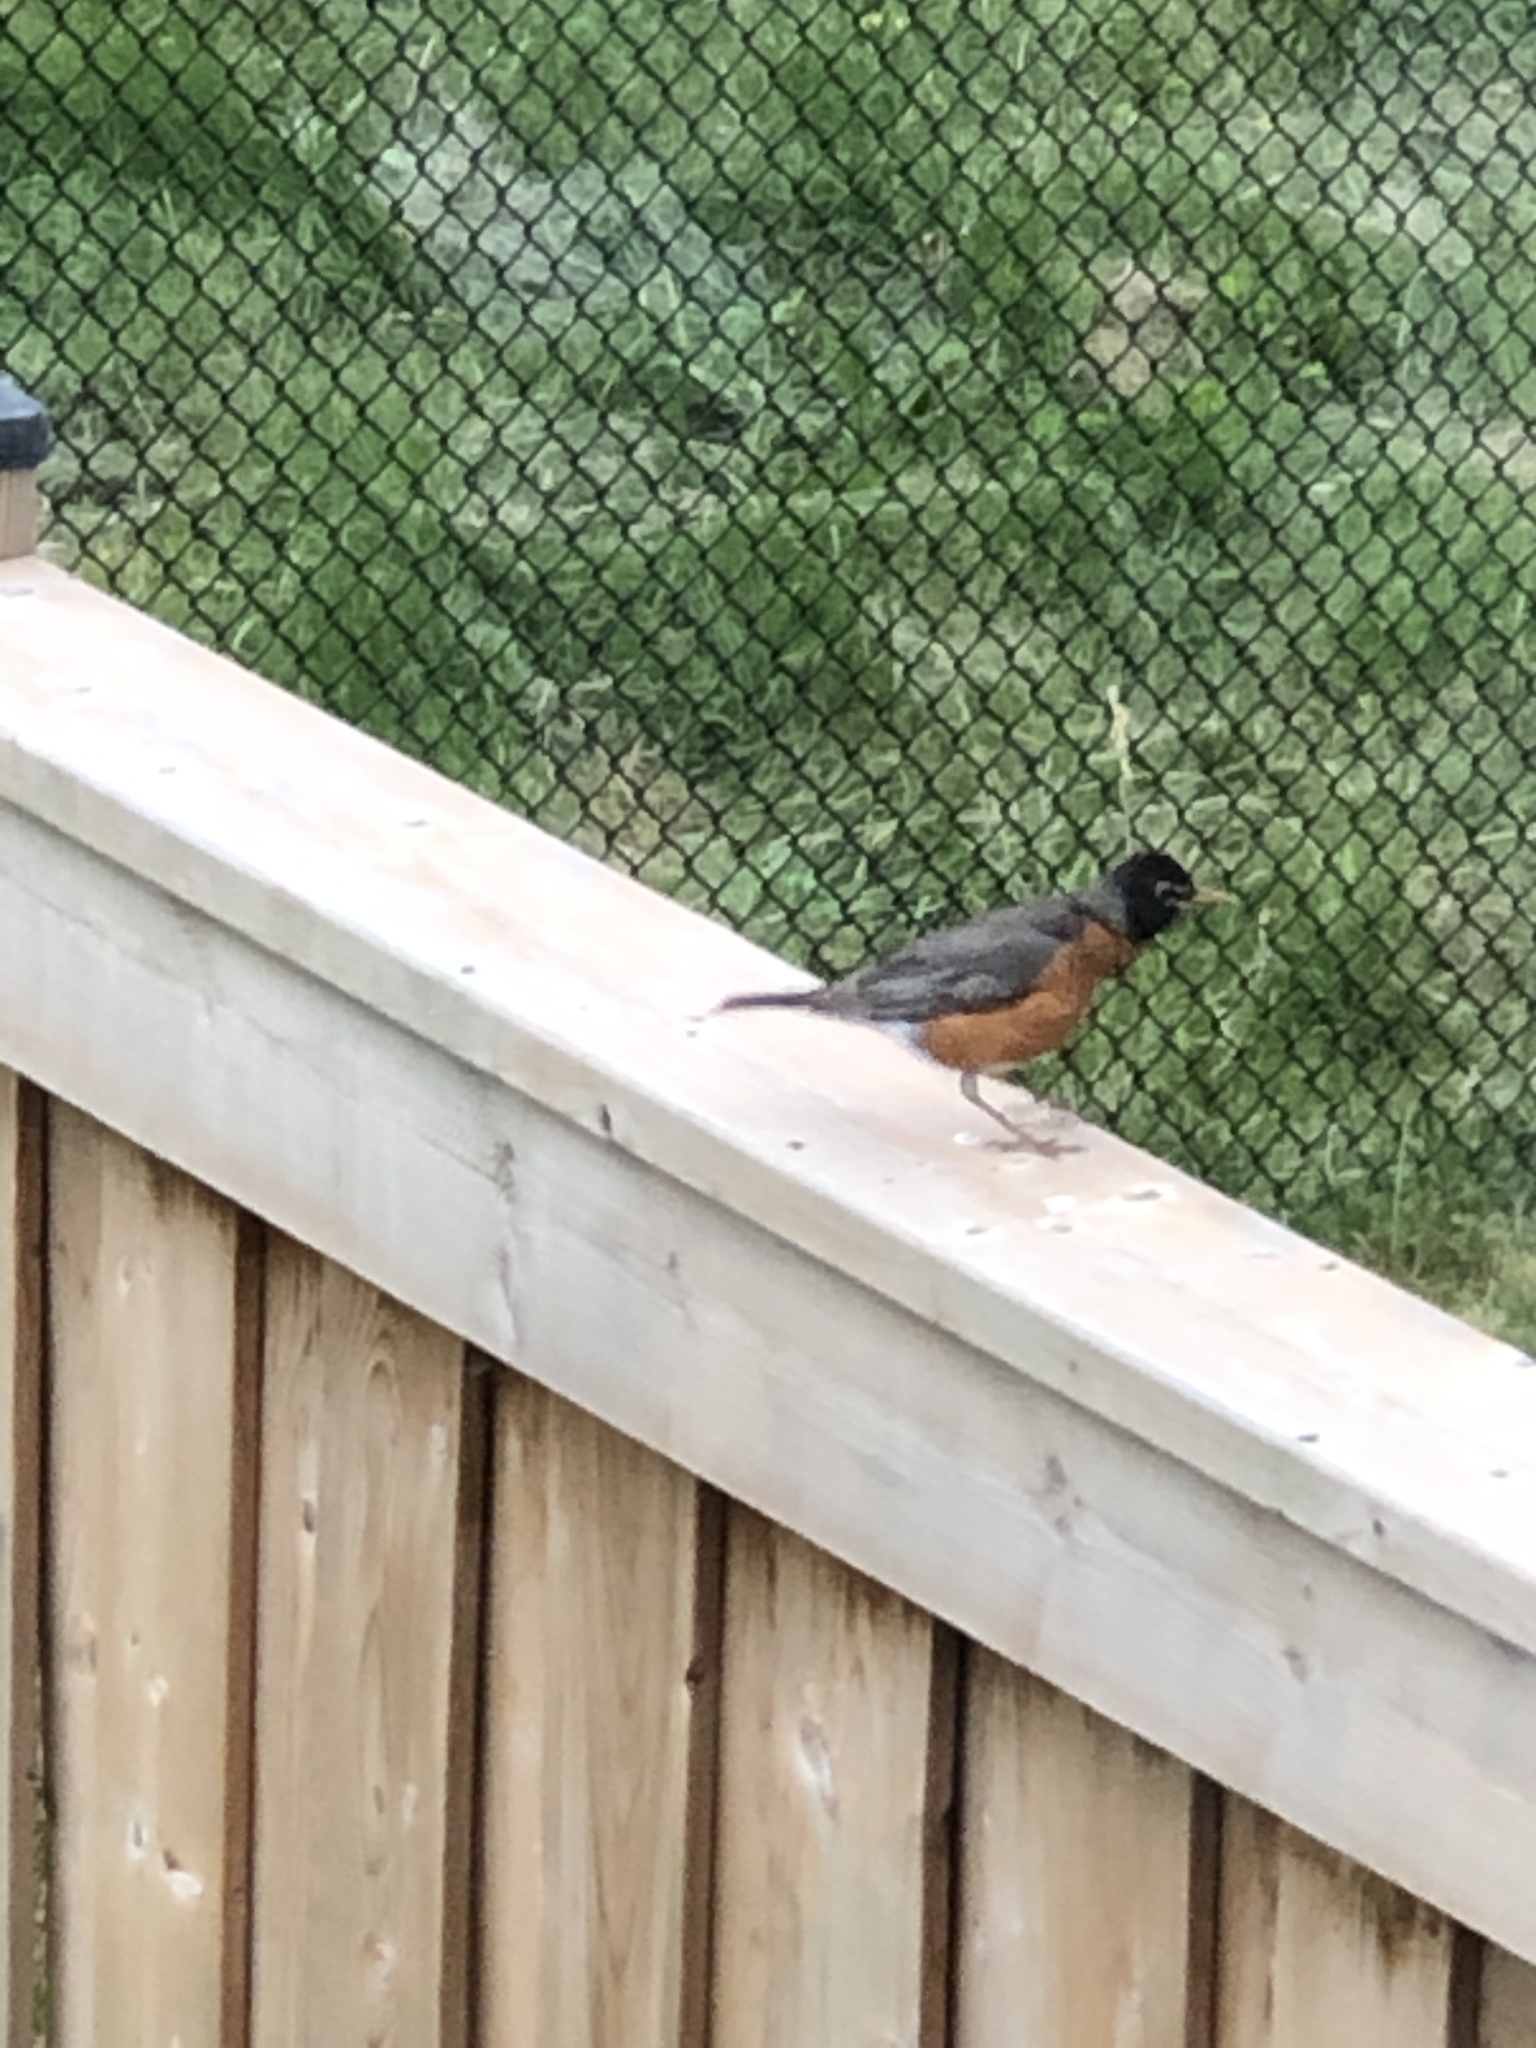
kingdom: Animalia
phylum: Chordata
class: Aves
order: Passeriformes
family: Turdidae
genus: Turdus
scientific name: Turdus migratorius
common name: American robin
